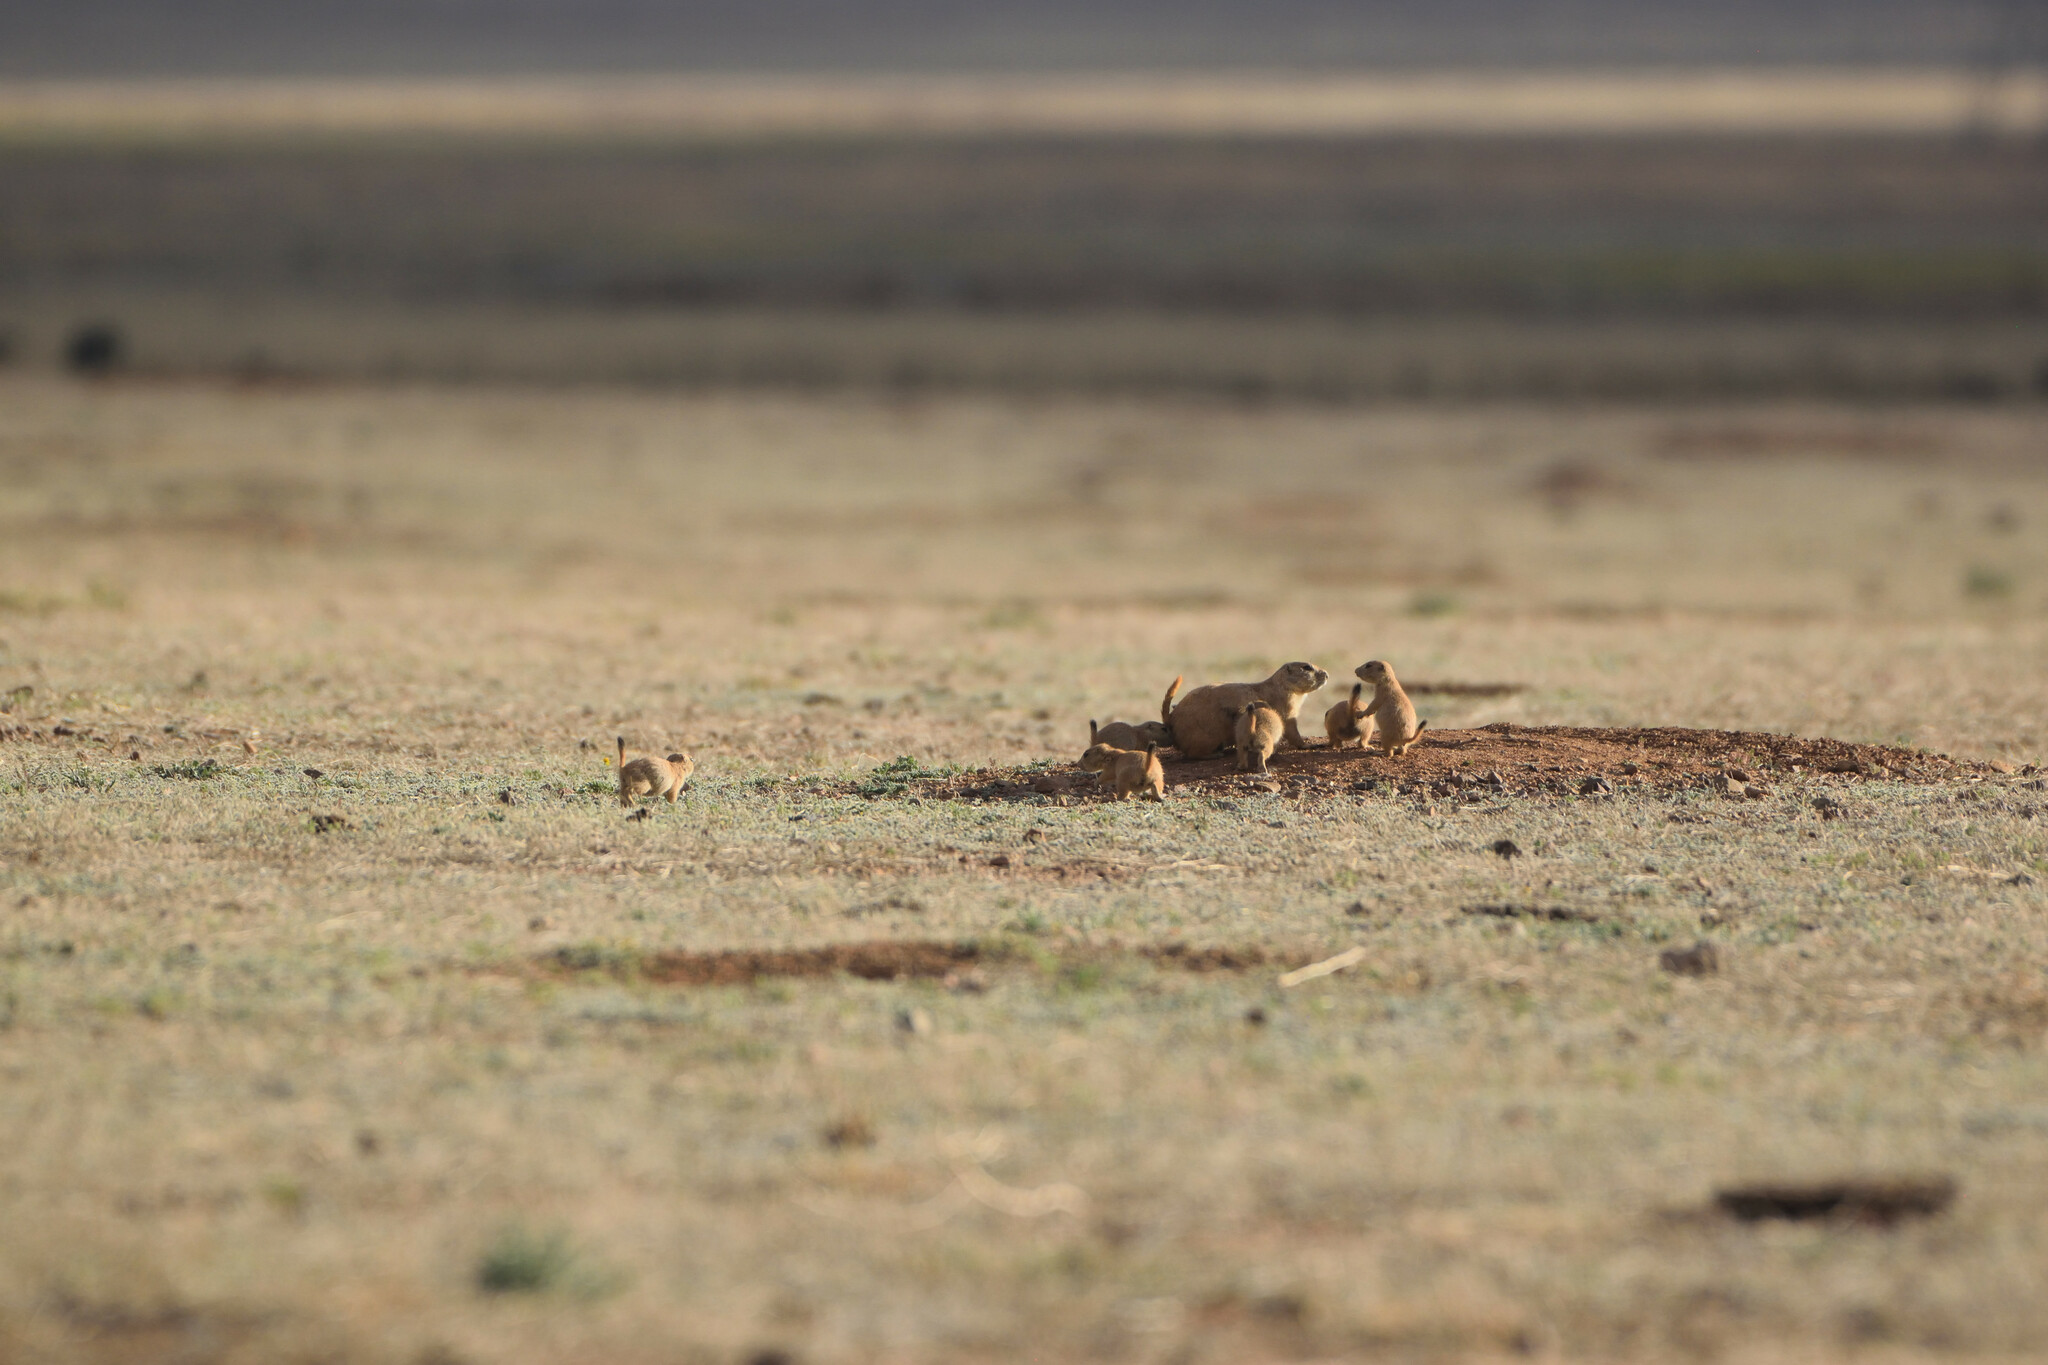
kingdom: Animalia
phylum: Chordata
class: Mammalia
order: Rodentia
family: Sciuridae
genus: Cynomys
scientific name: Cynomys ludovicianus
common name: Black-tailed prairie dog
